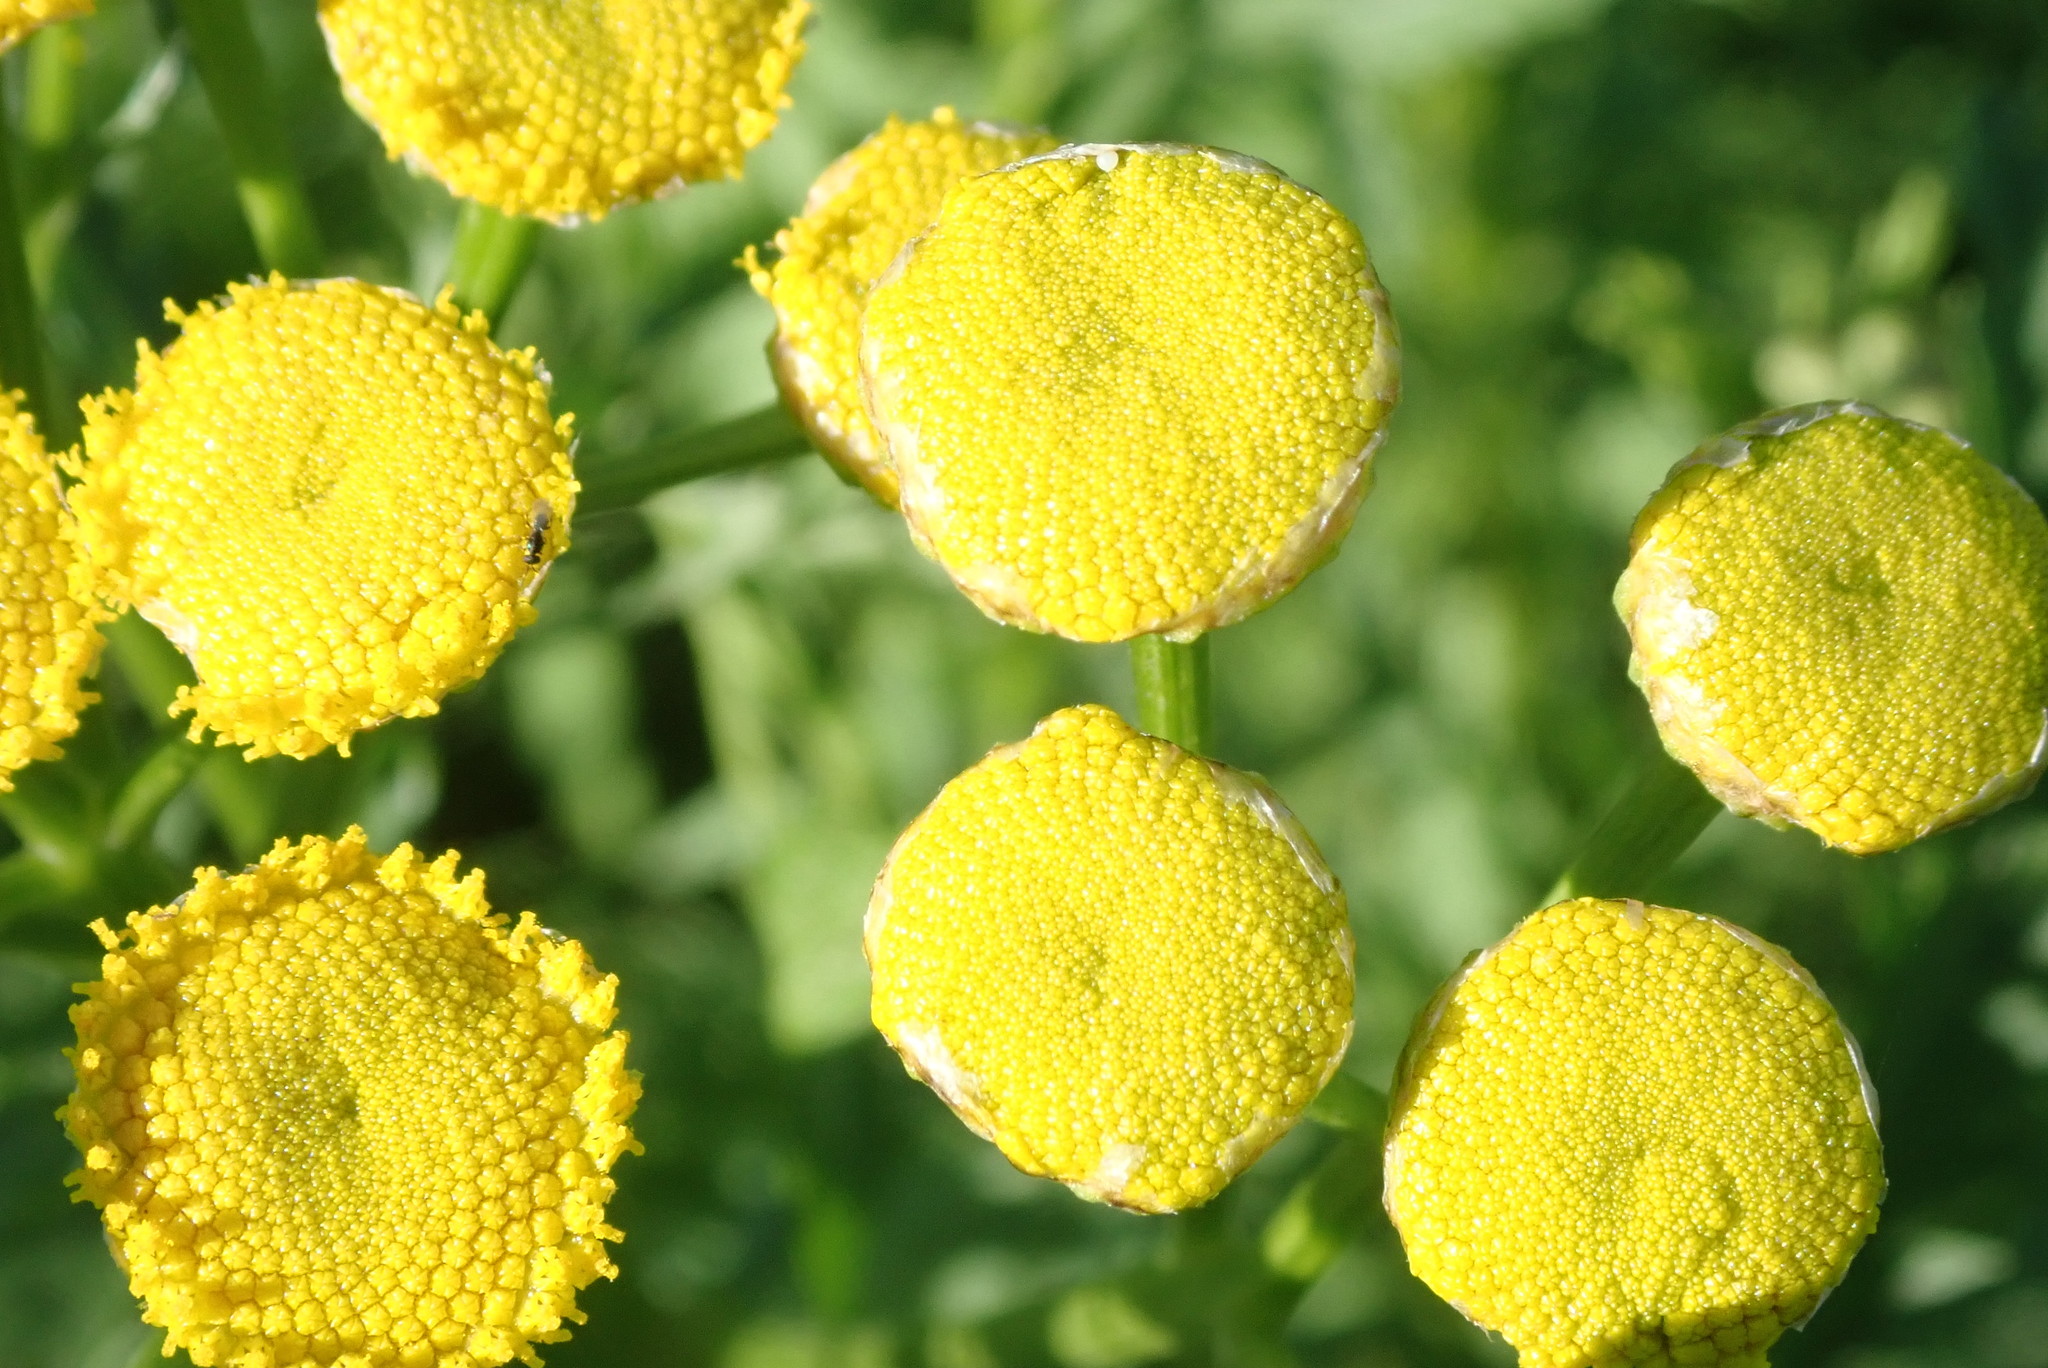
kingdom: Plantae
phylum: Tracheophyta
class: Magnoliopsida
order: Asterales
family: Asteraceae
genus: Tanacetum
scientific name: Tanacetum vulgare
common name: Common tansy
